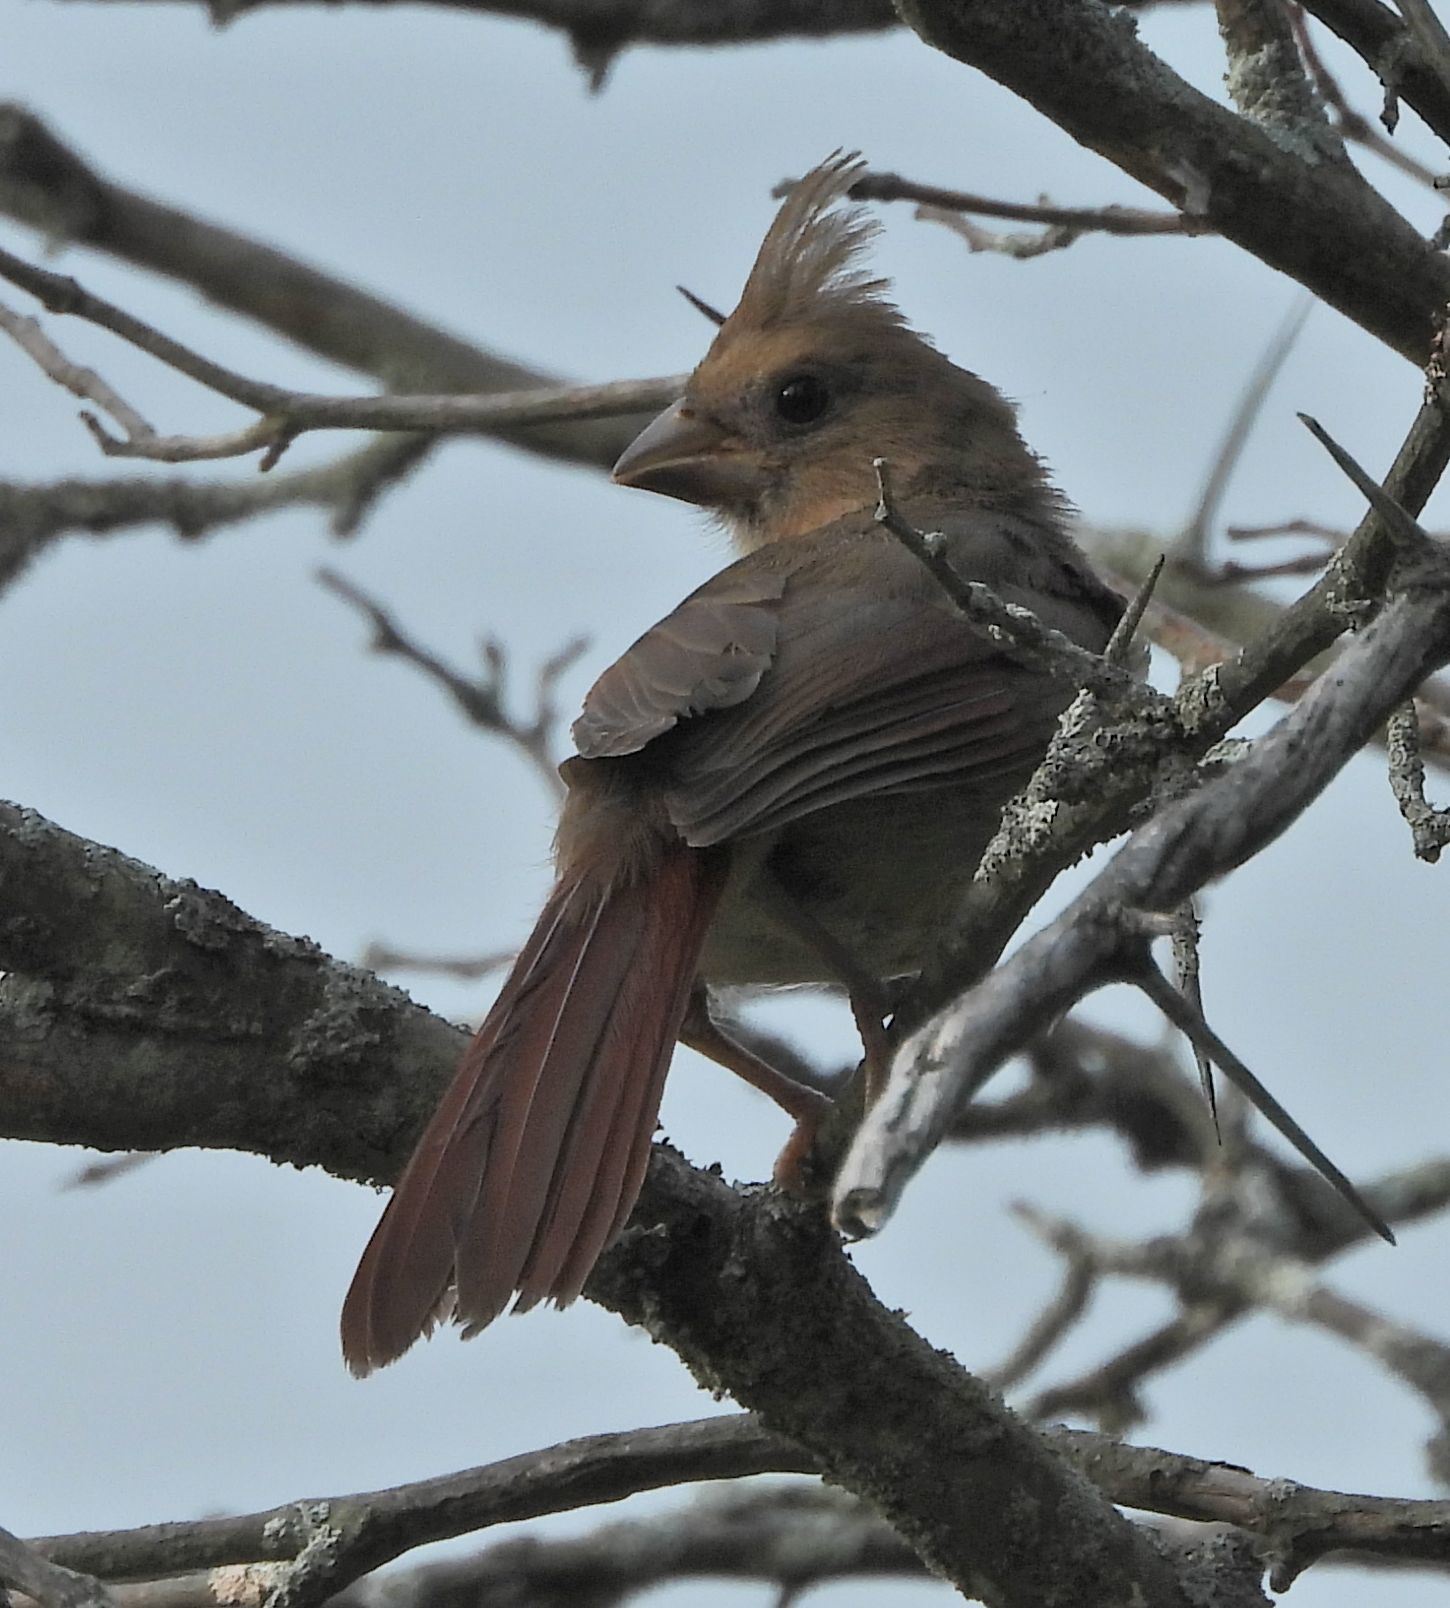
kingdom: Animalia
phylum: Chordata
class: Aves
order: Passeriformes
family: Cardinalidae
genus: Cardinalis
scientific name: Cardinalis cardinalis
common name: Northern cardinal
